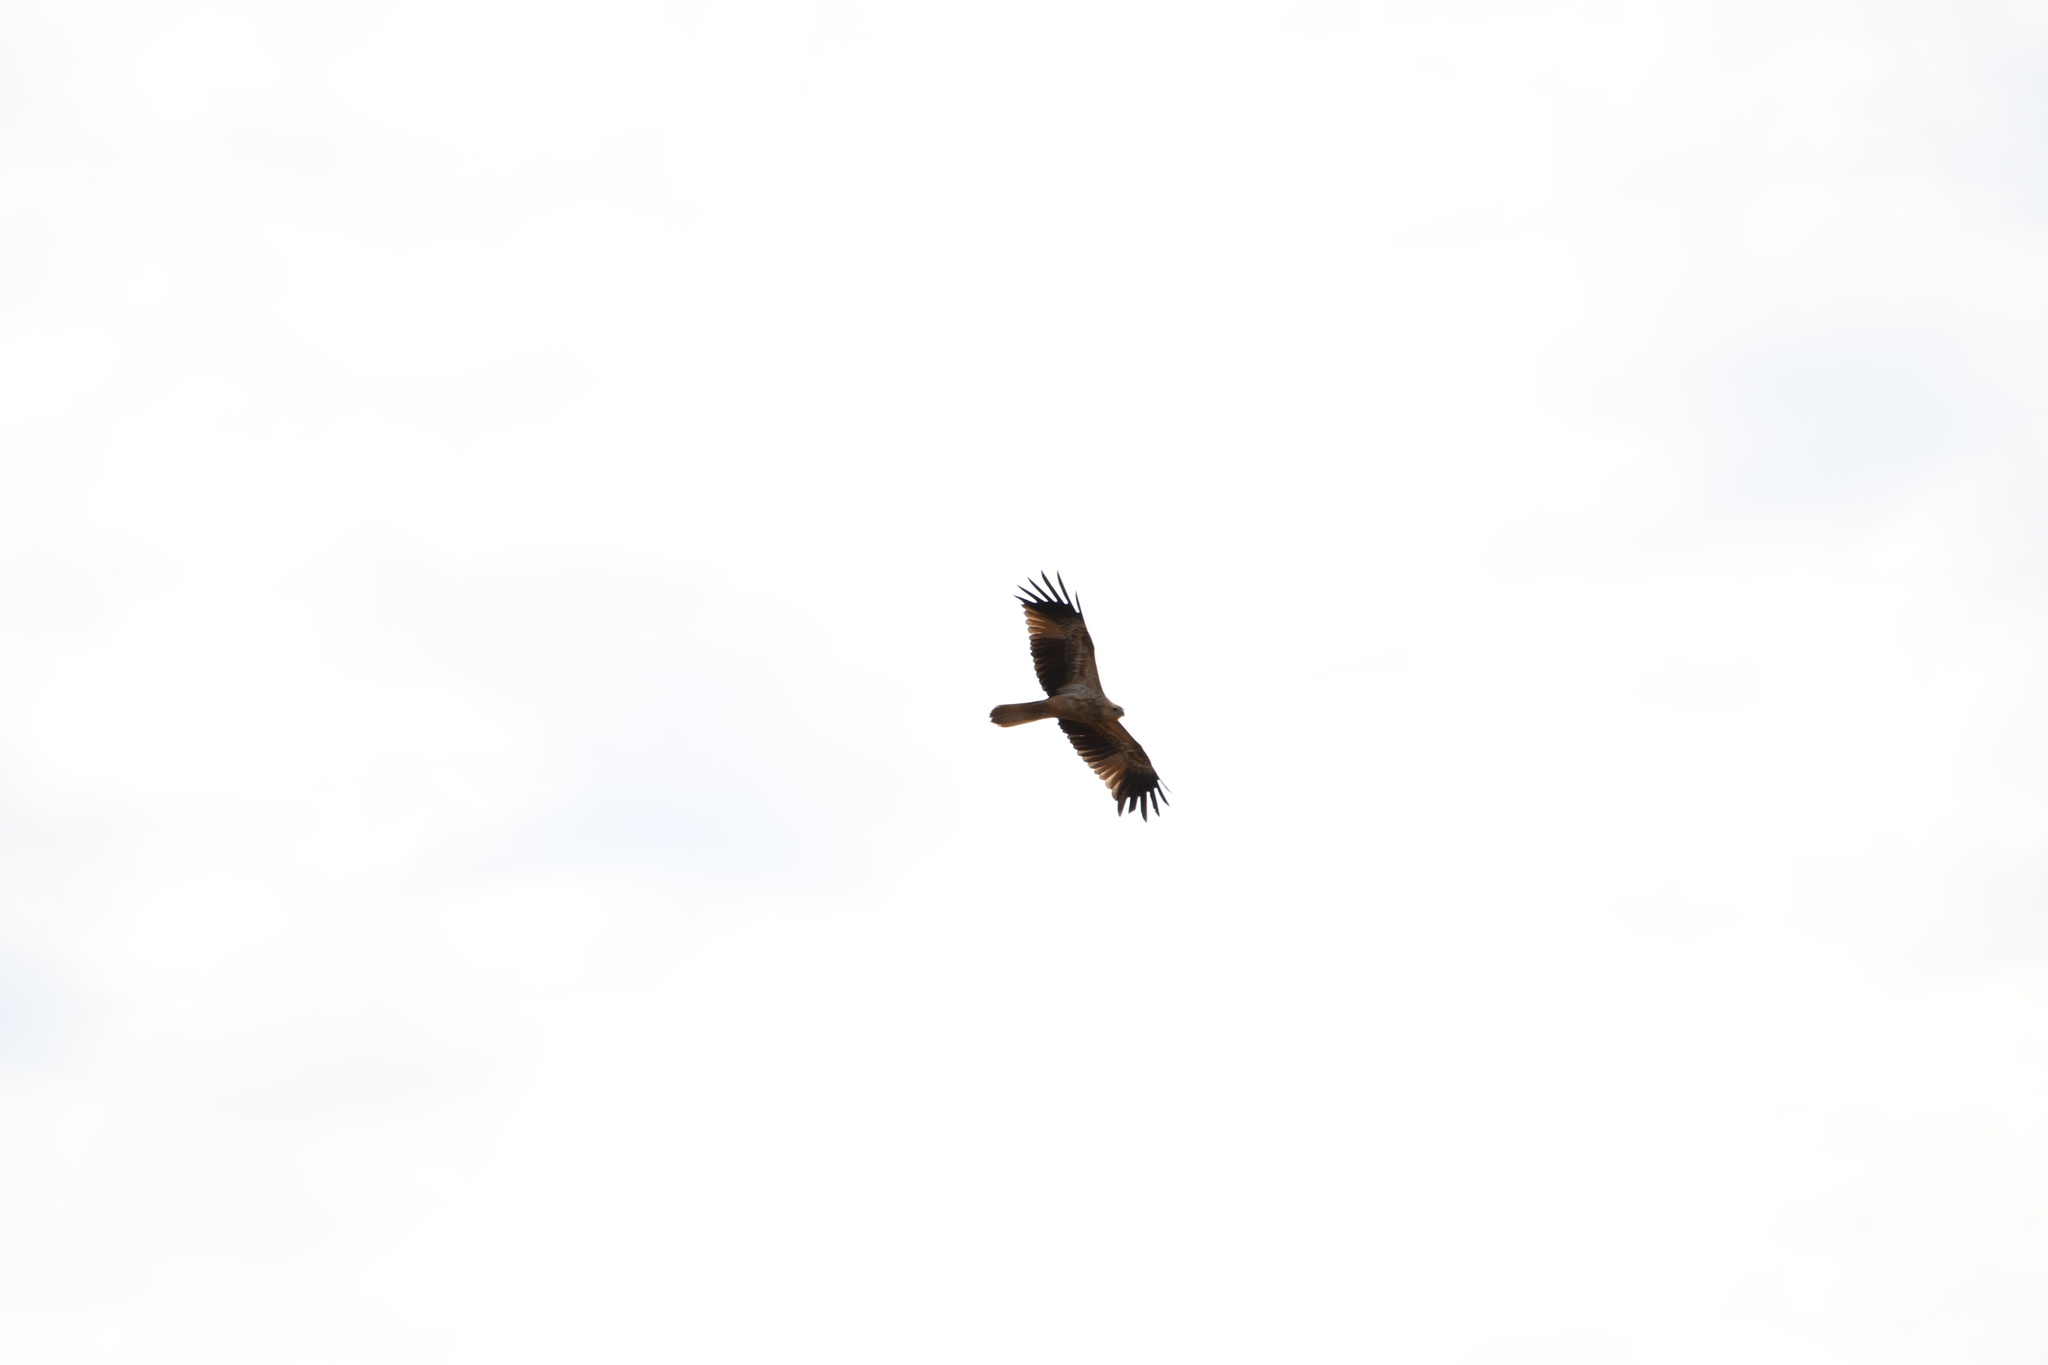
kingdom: Animalia
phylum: Chordata
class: Aves
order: Accipitriformes
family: Accipitridae
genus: Haliastur
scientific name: Haliastur sphenurus
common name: Whistling kite
